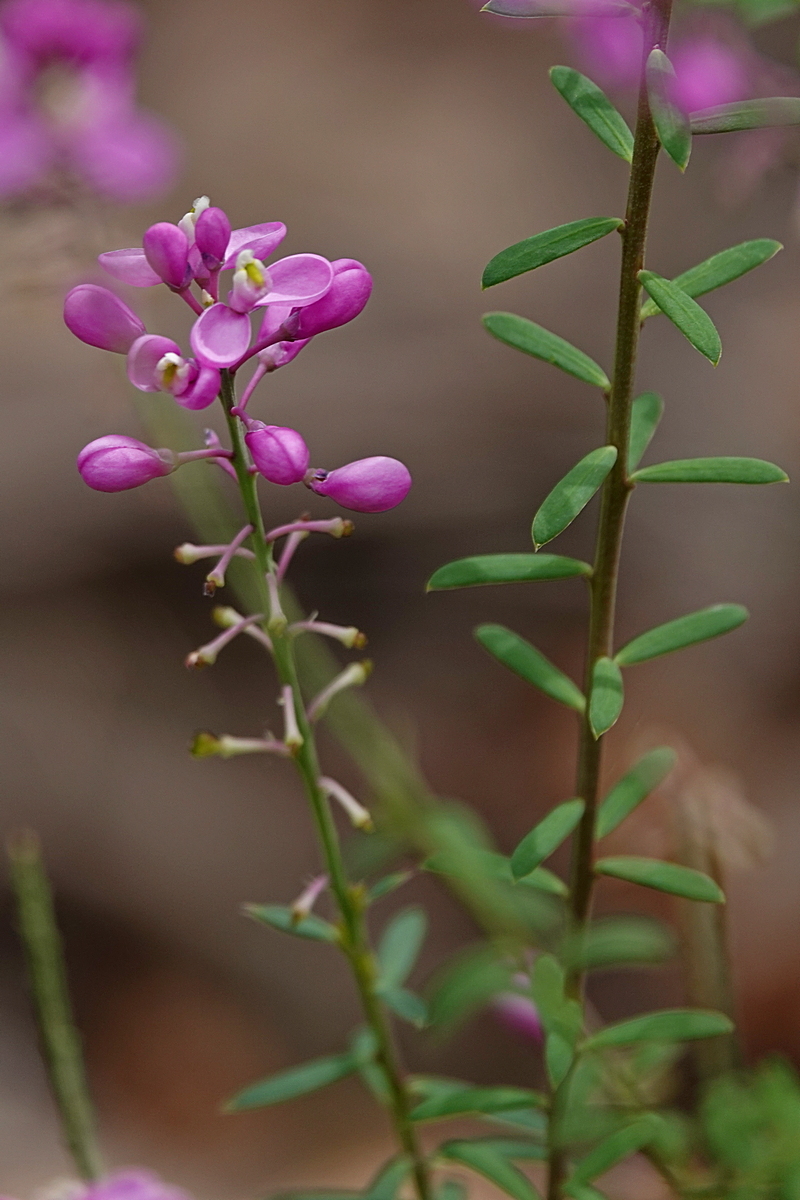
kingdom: Plantae
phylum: Tracheophyta
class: Magnoliopsida
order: Fabales
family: Polygalaceae
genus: Comesperma
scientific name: Comesperma ericinum
